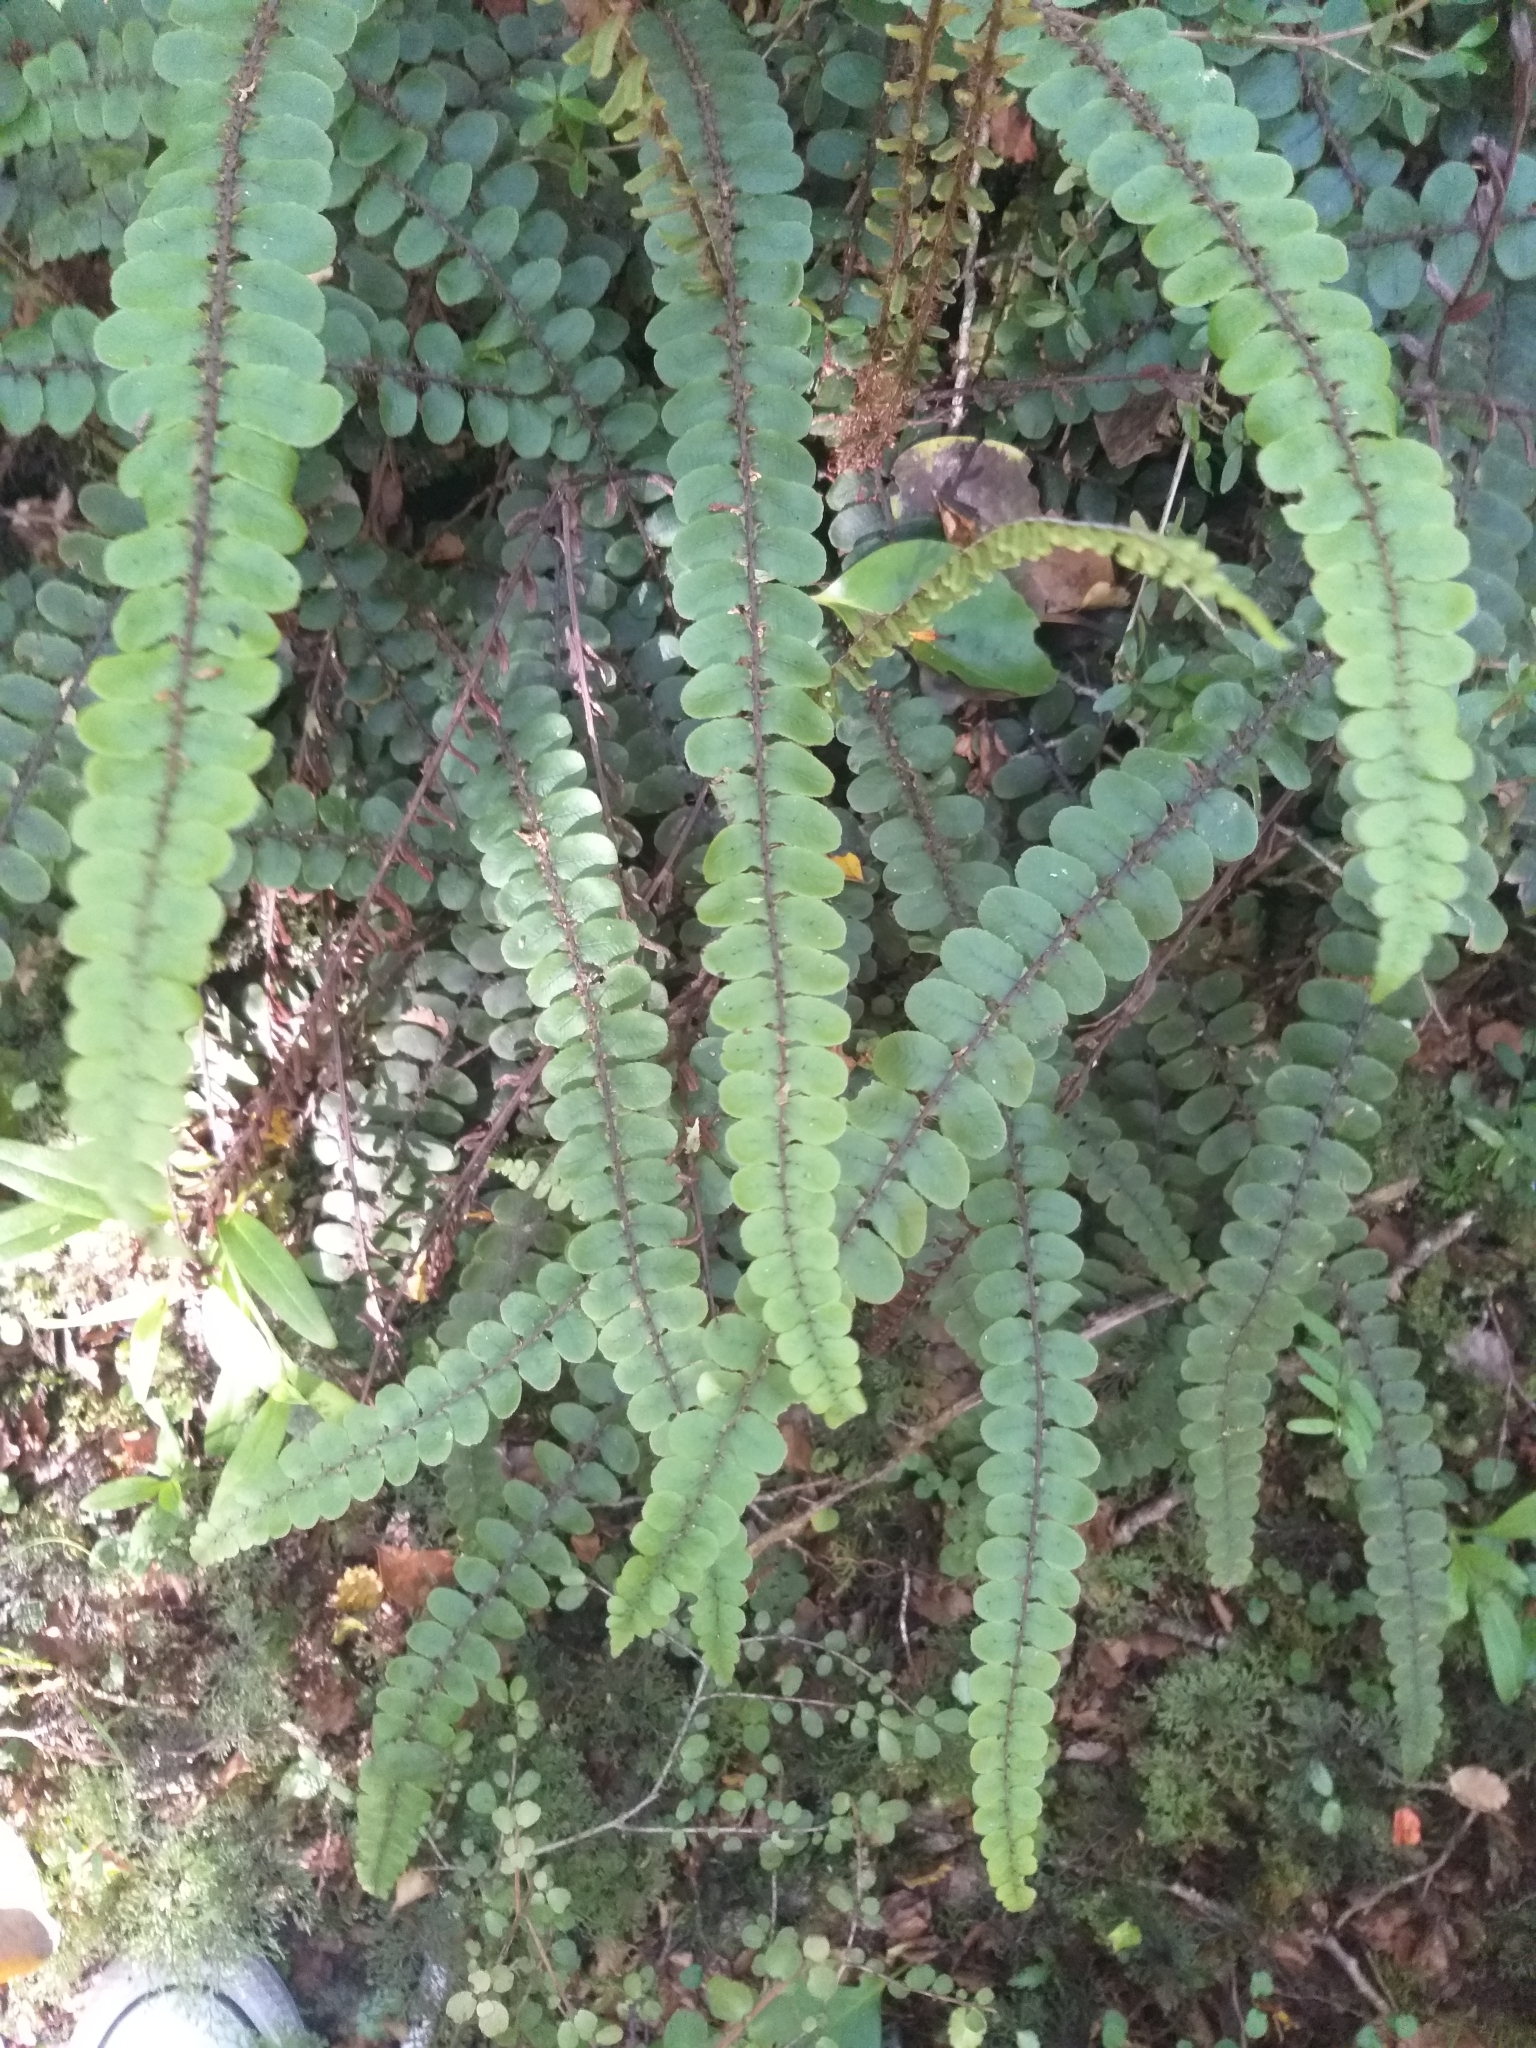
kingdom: Plantae
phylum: Tracheophyta
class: Polypodiopsida
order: Polypodiales
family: Blechnaceae
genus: Cranfillia
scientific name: Cranfillia fluviatilis
